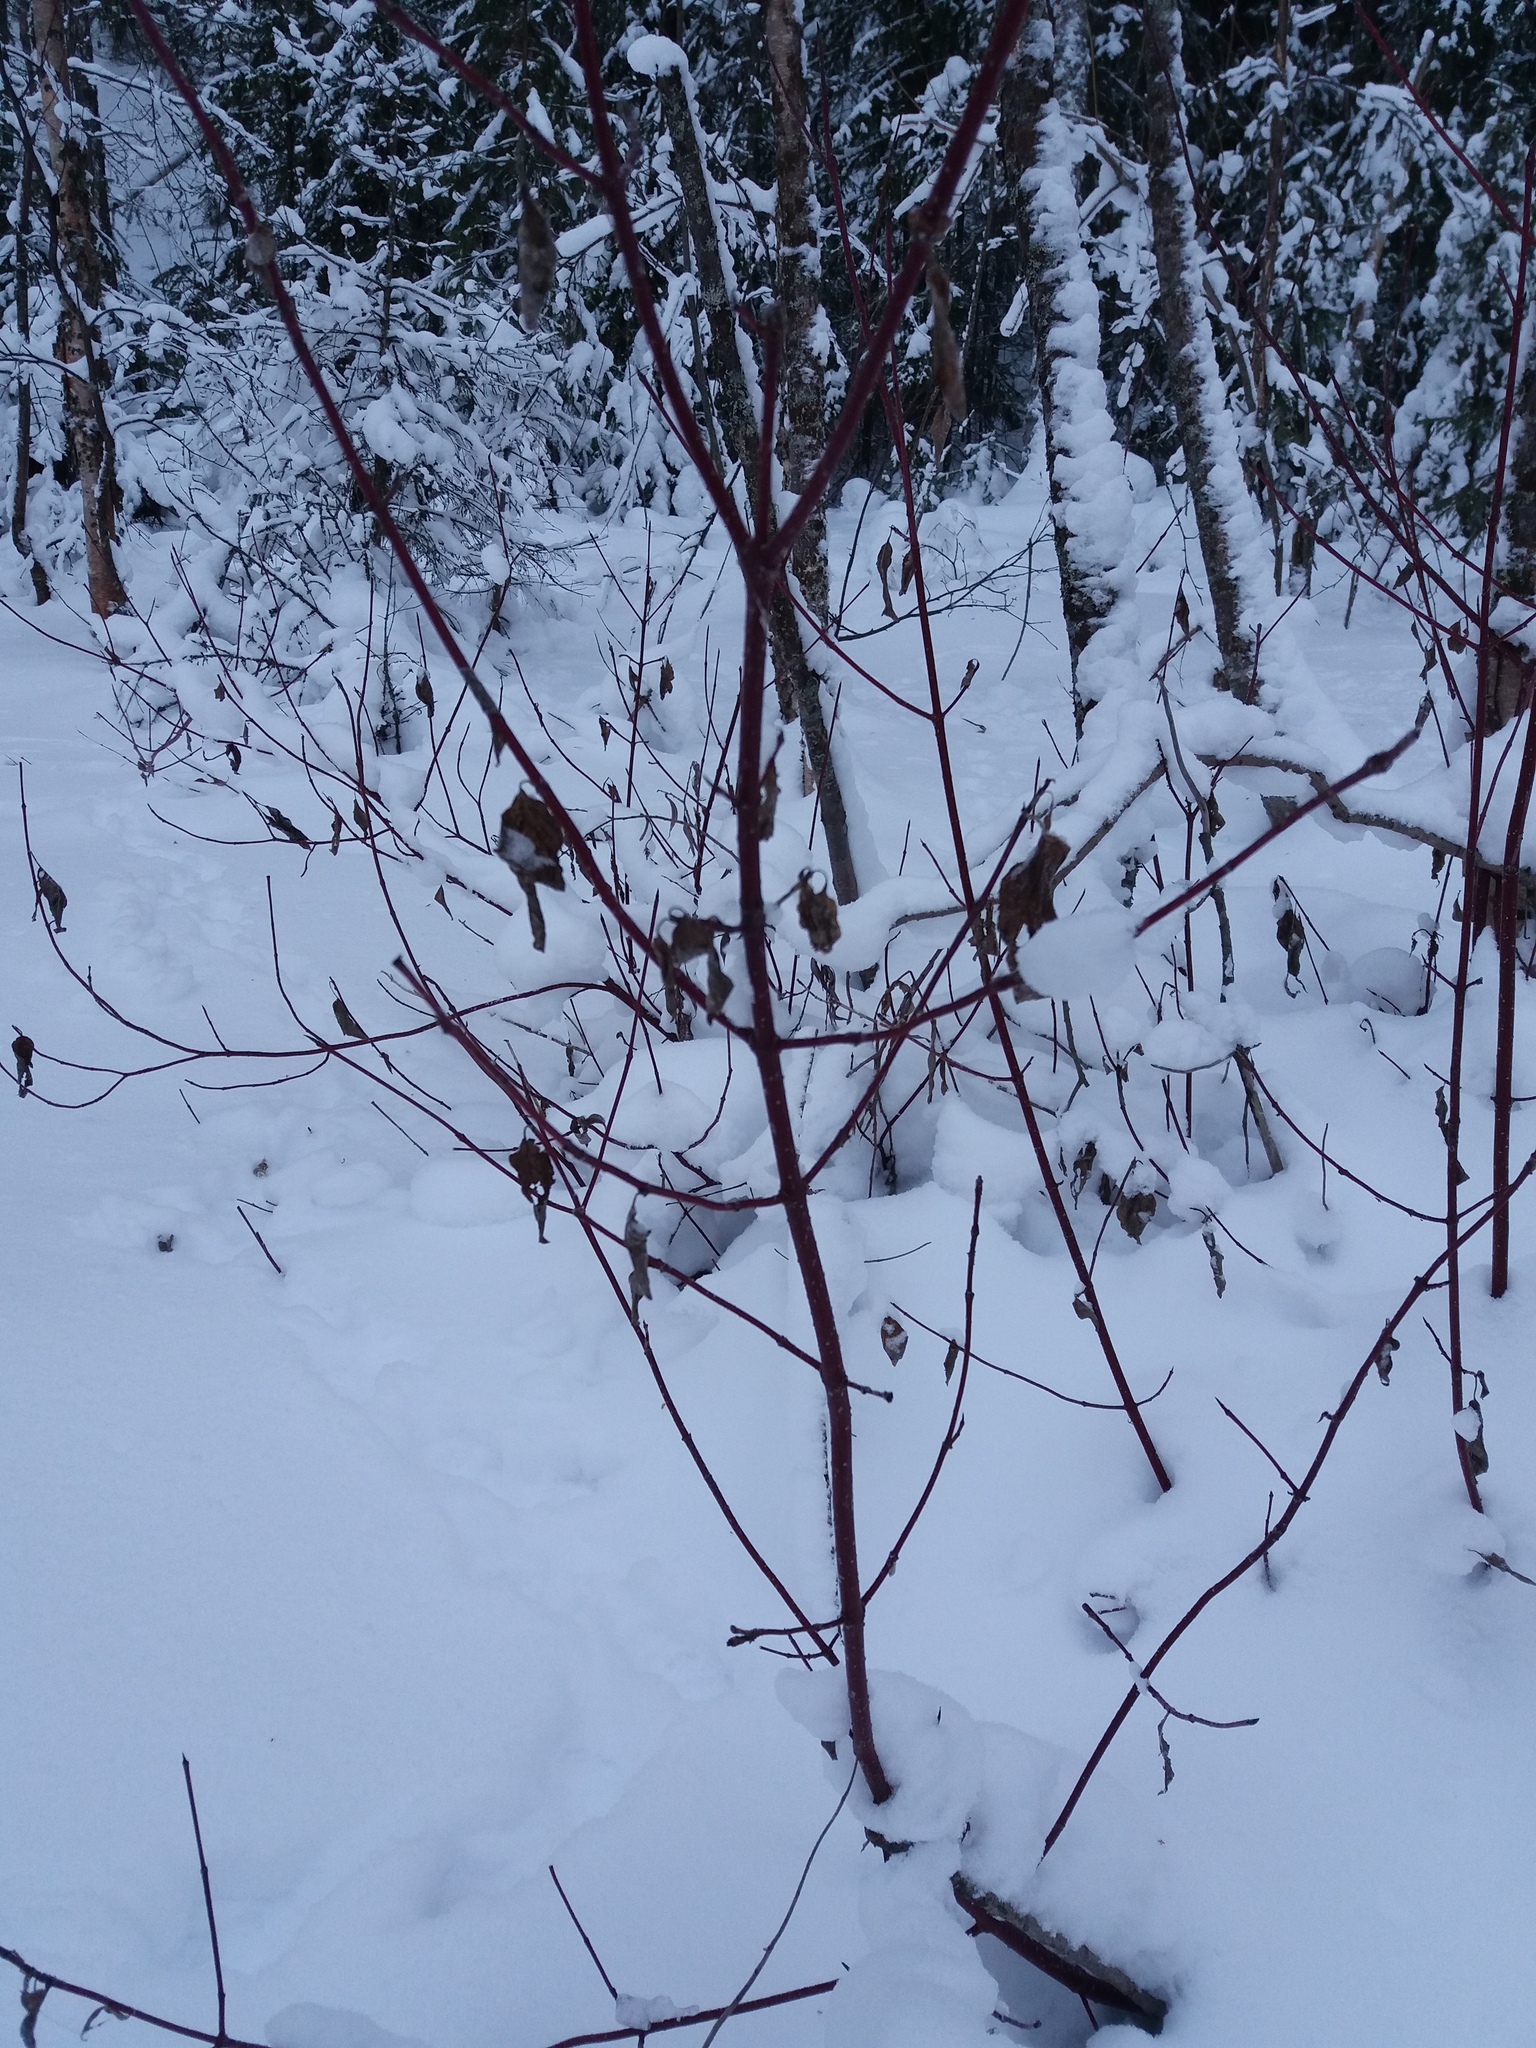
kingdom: Plantae
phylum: Tracheophyta
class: Magnoliopsida
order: Cornales
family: Cornaceae
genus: Cornus
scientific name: Cornus alba
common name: White dogwood
